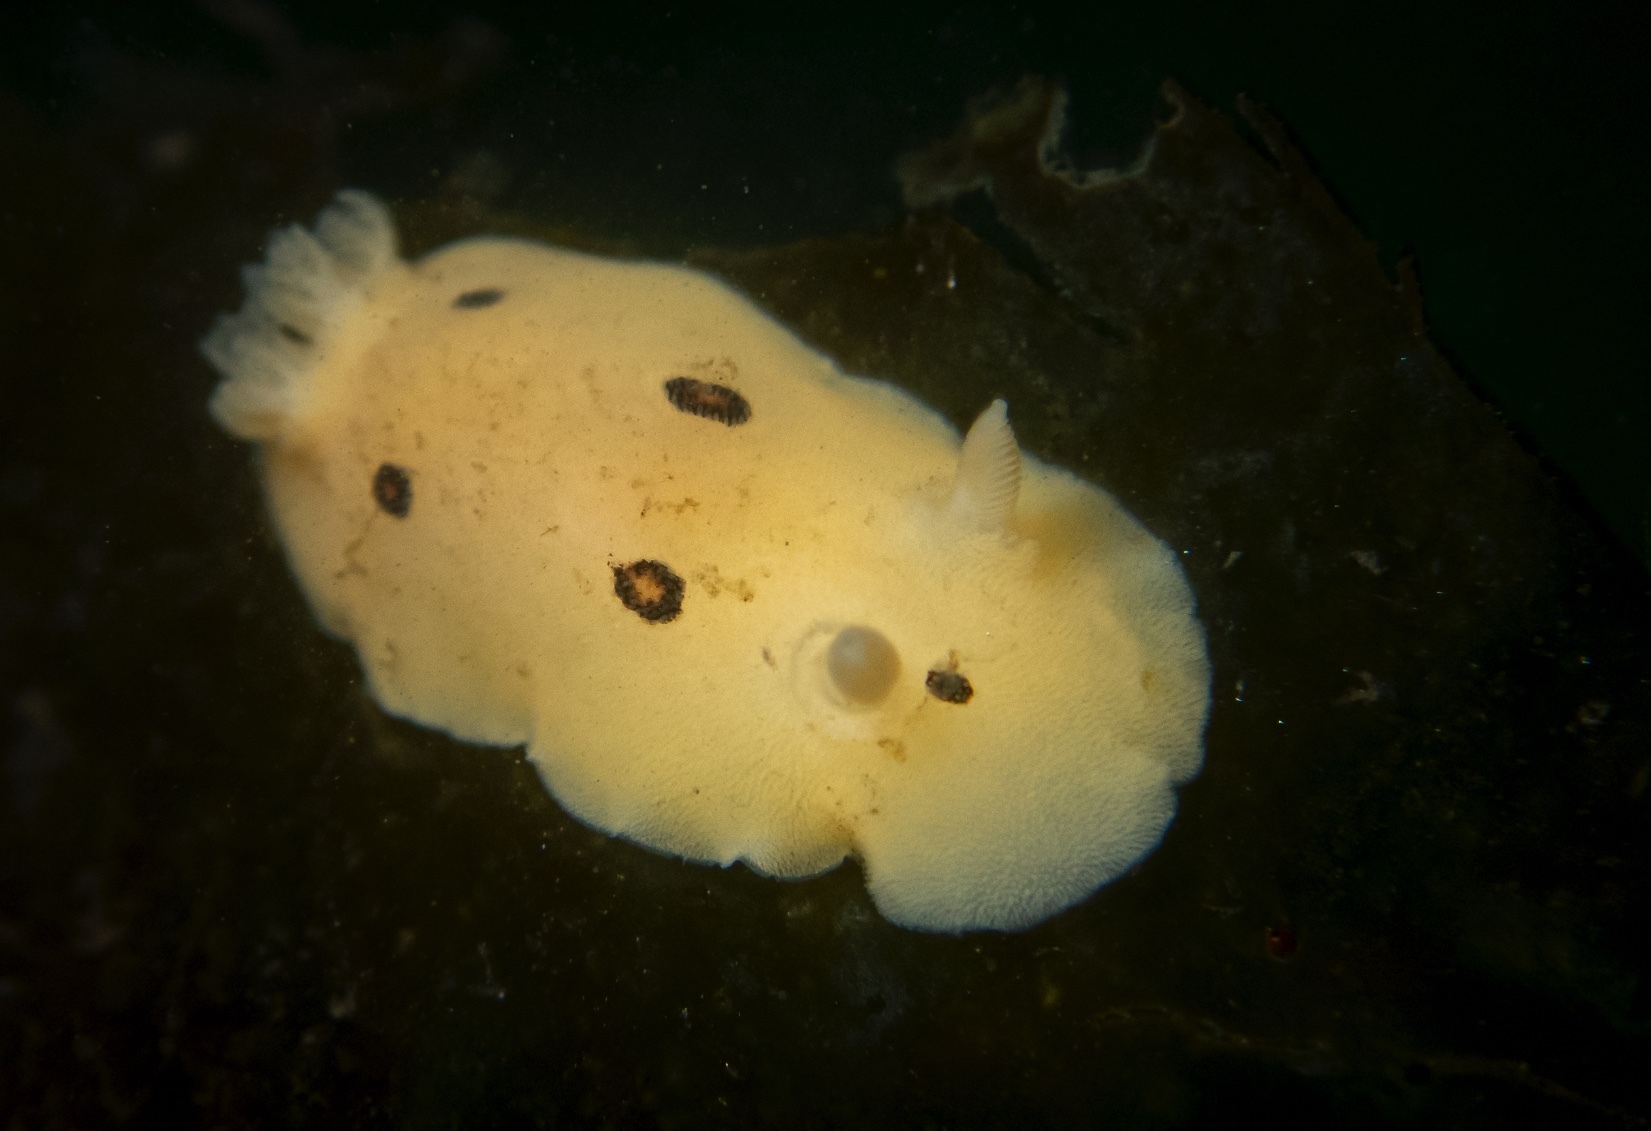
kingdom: Animalia
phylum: Mollusca
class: Gastropoda
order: Nudibranchia
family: Discodorididae
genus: Diaulula
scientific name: Diaulula sandiegensis
